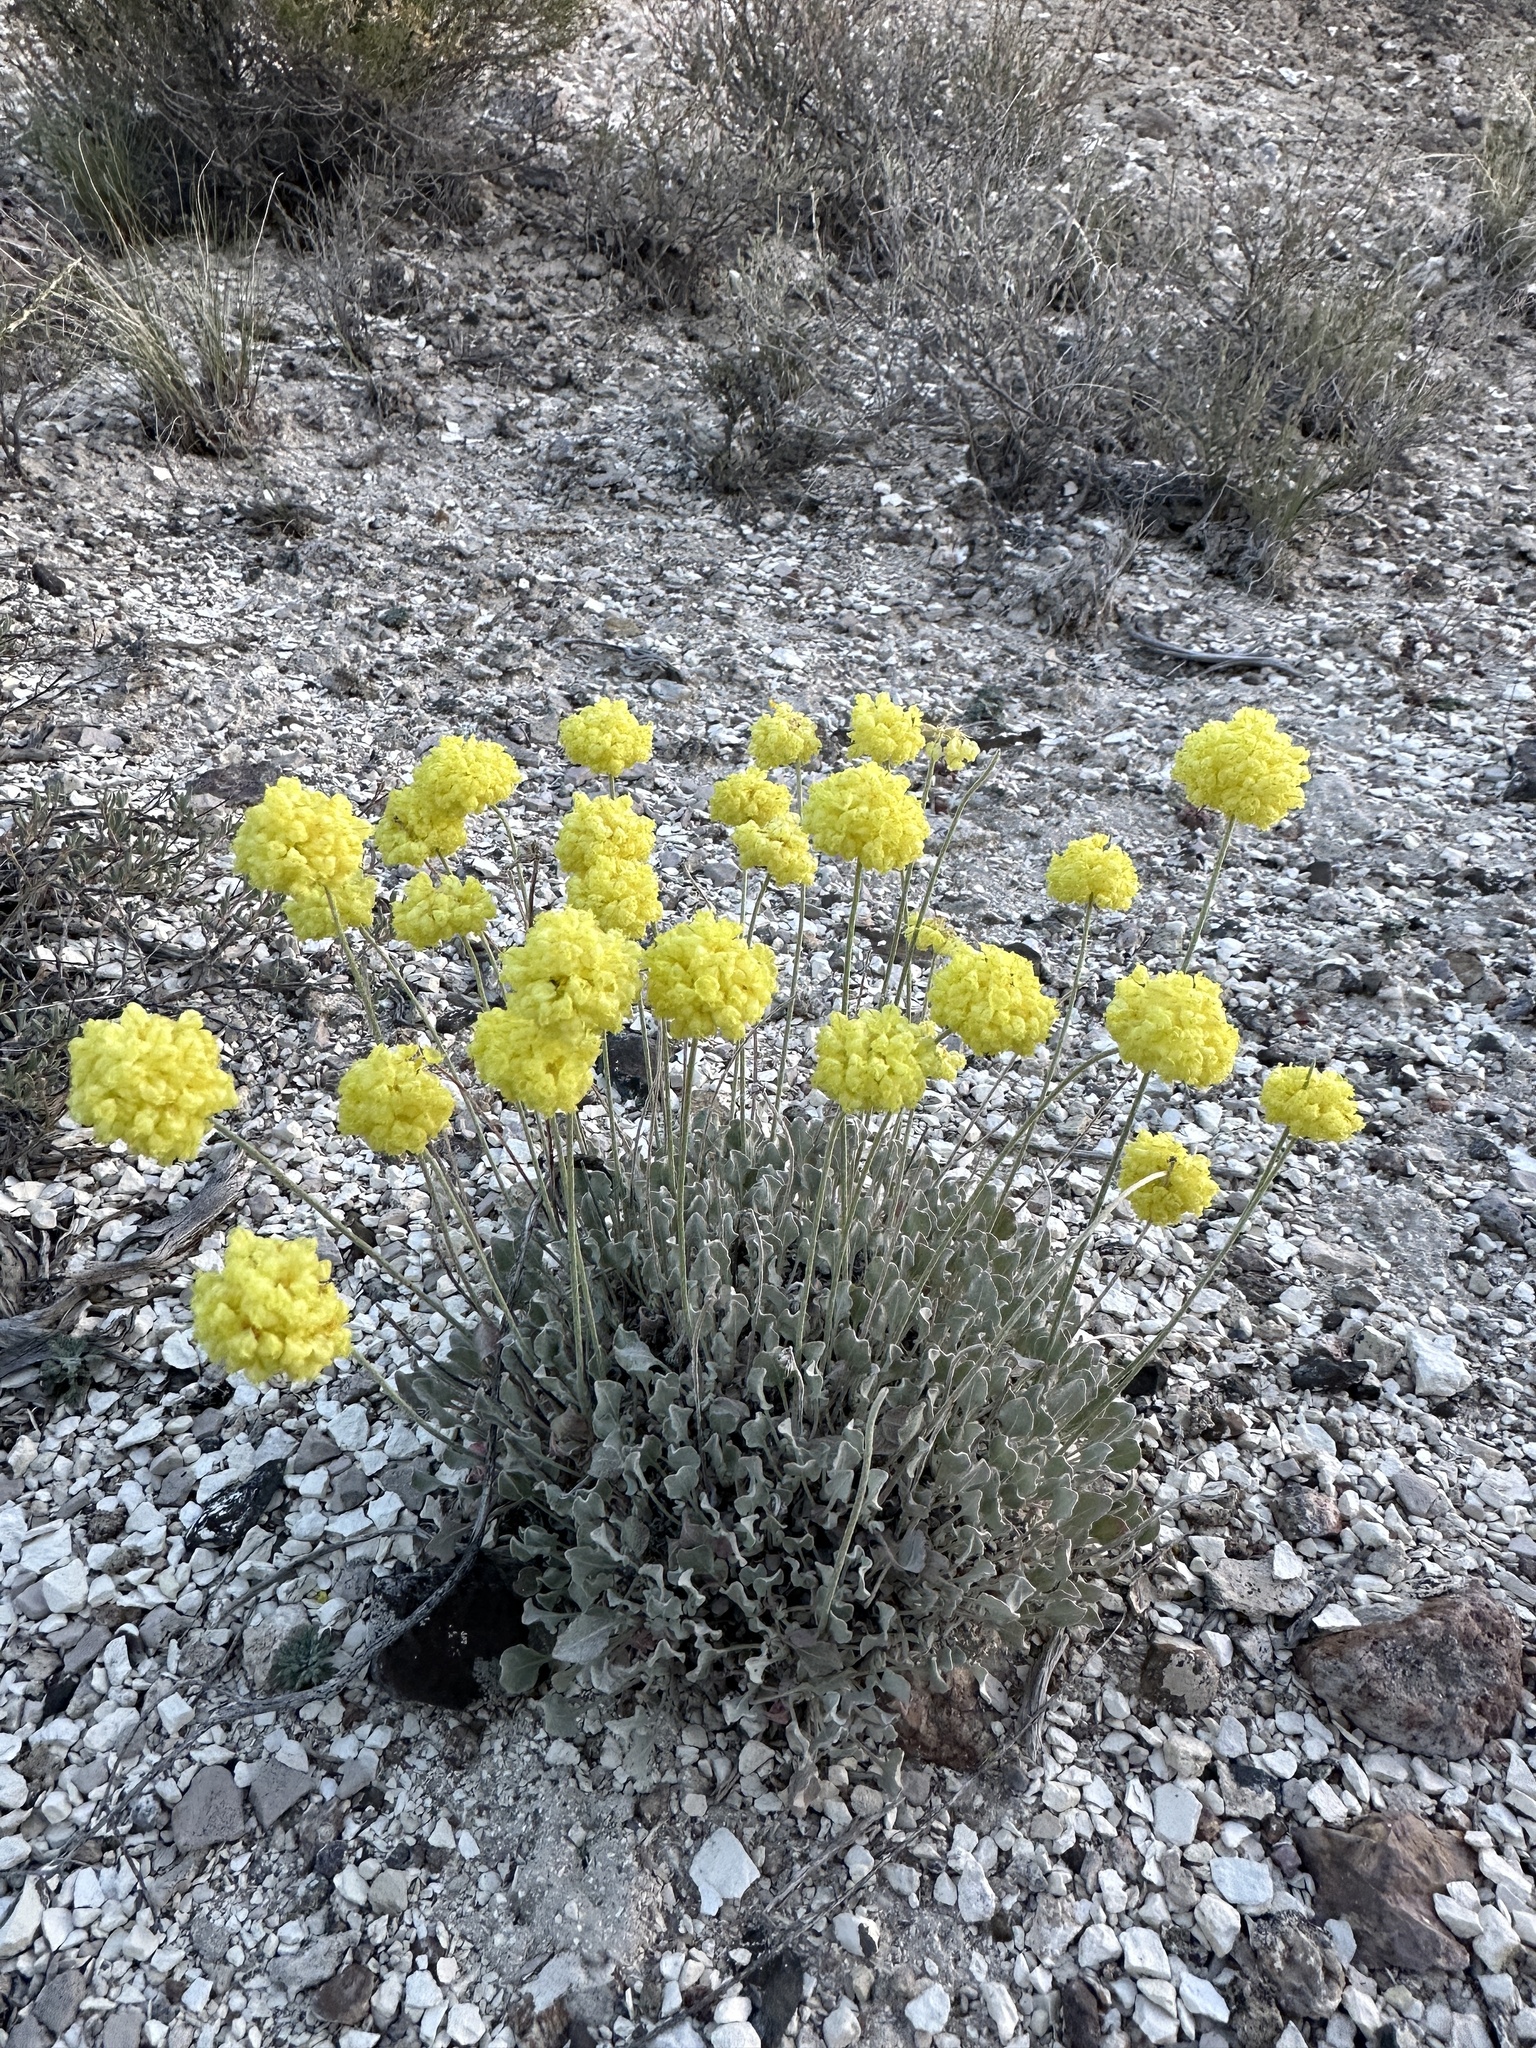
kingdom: Plantae
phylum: Tracheophyta
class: Magnoliopsida
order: Caryophyllales
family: Polygonaceae
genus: Eriogonum
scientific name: Eriogonum ovalifolium
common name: Cushion buckwheat
